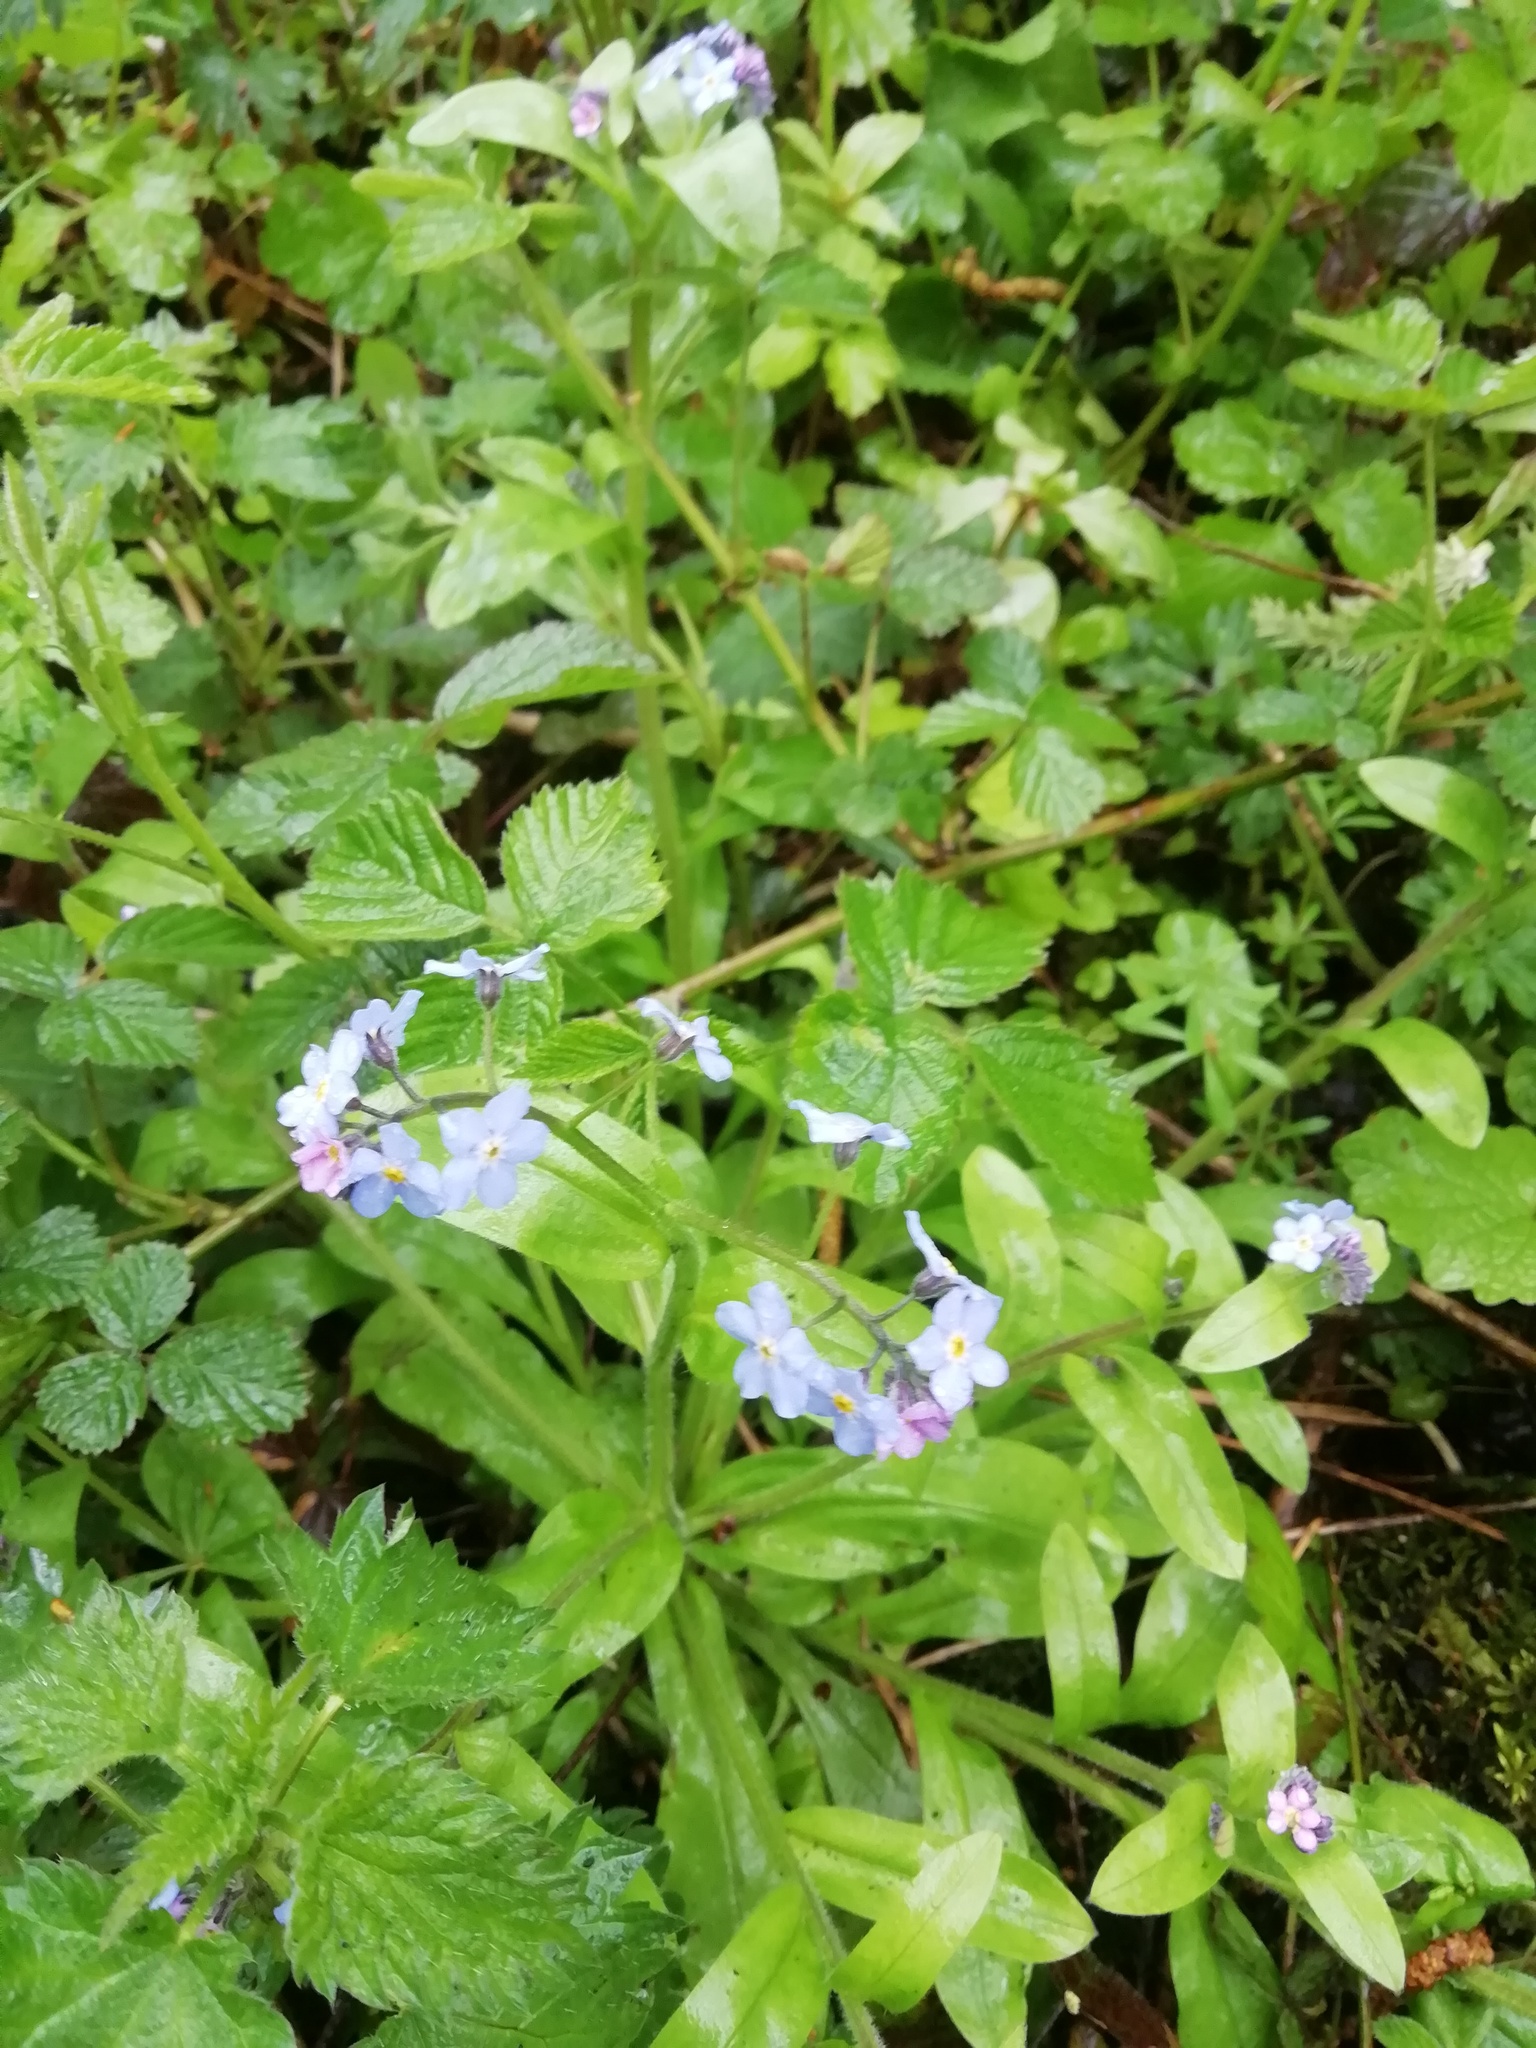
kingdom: Plantae
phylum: Tracheophyta
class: Magnoliopsida
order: Boraginales
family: Boraginaceae
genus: Myosotis
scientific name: Myosotis sylvatica
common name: Wood forget-me-not
